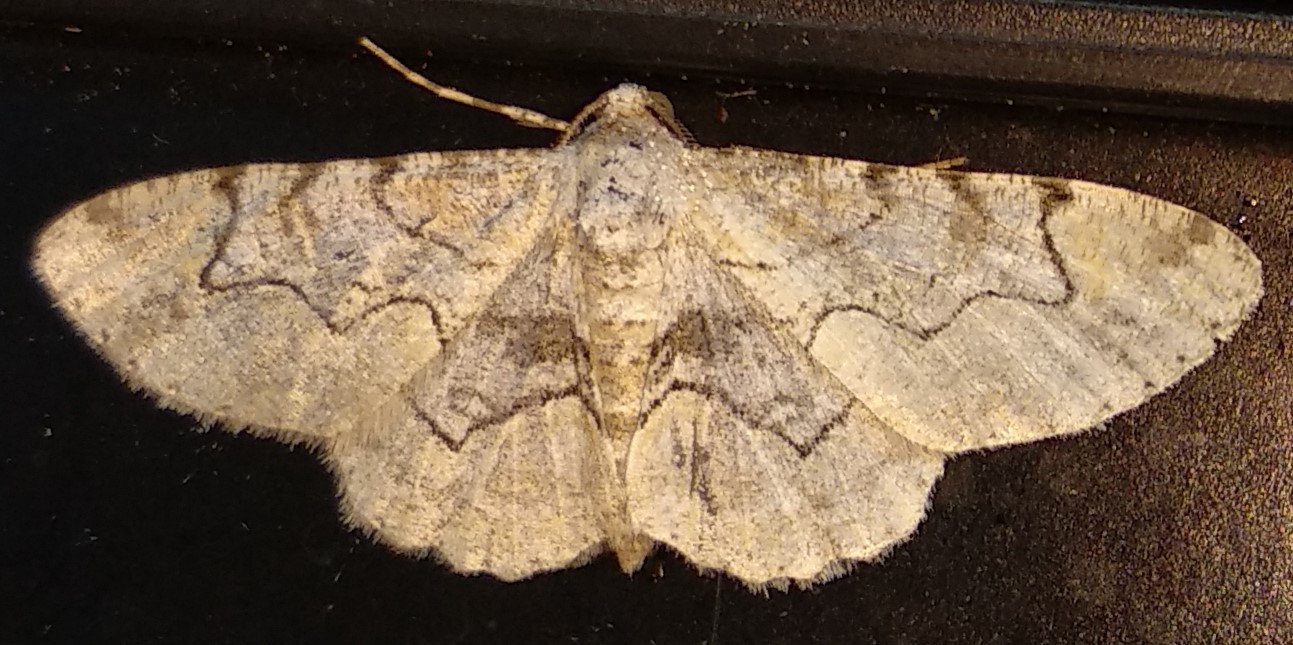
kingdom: Animalia
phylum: Arthropoda
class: Insecta
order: Lepidoptera
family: Geometridae
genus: Iridopsis
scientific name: Iridopsis larvaria
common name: Bent-line gray
